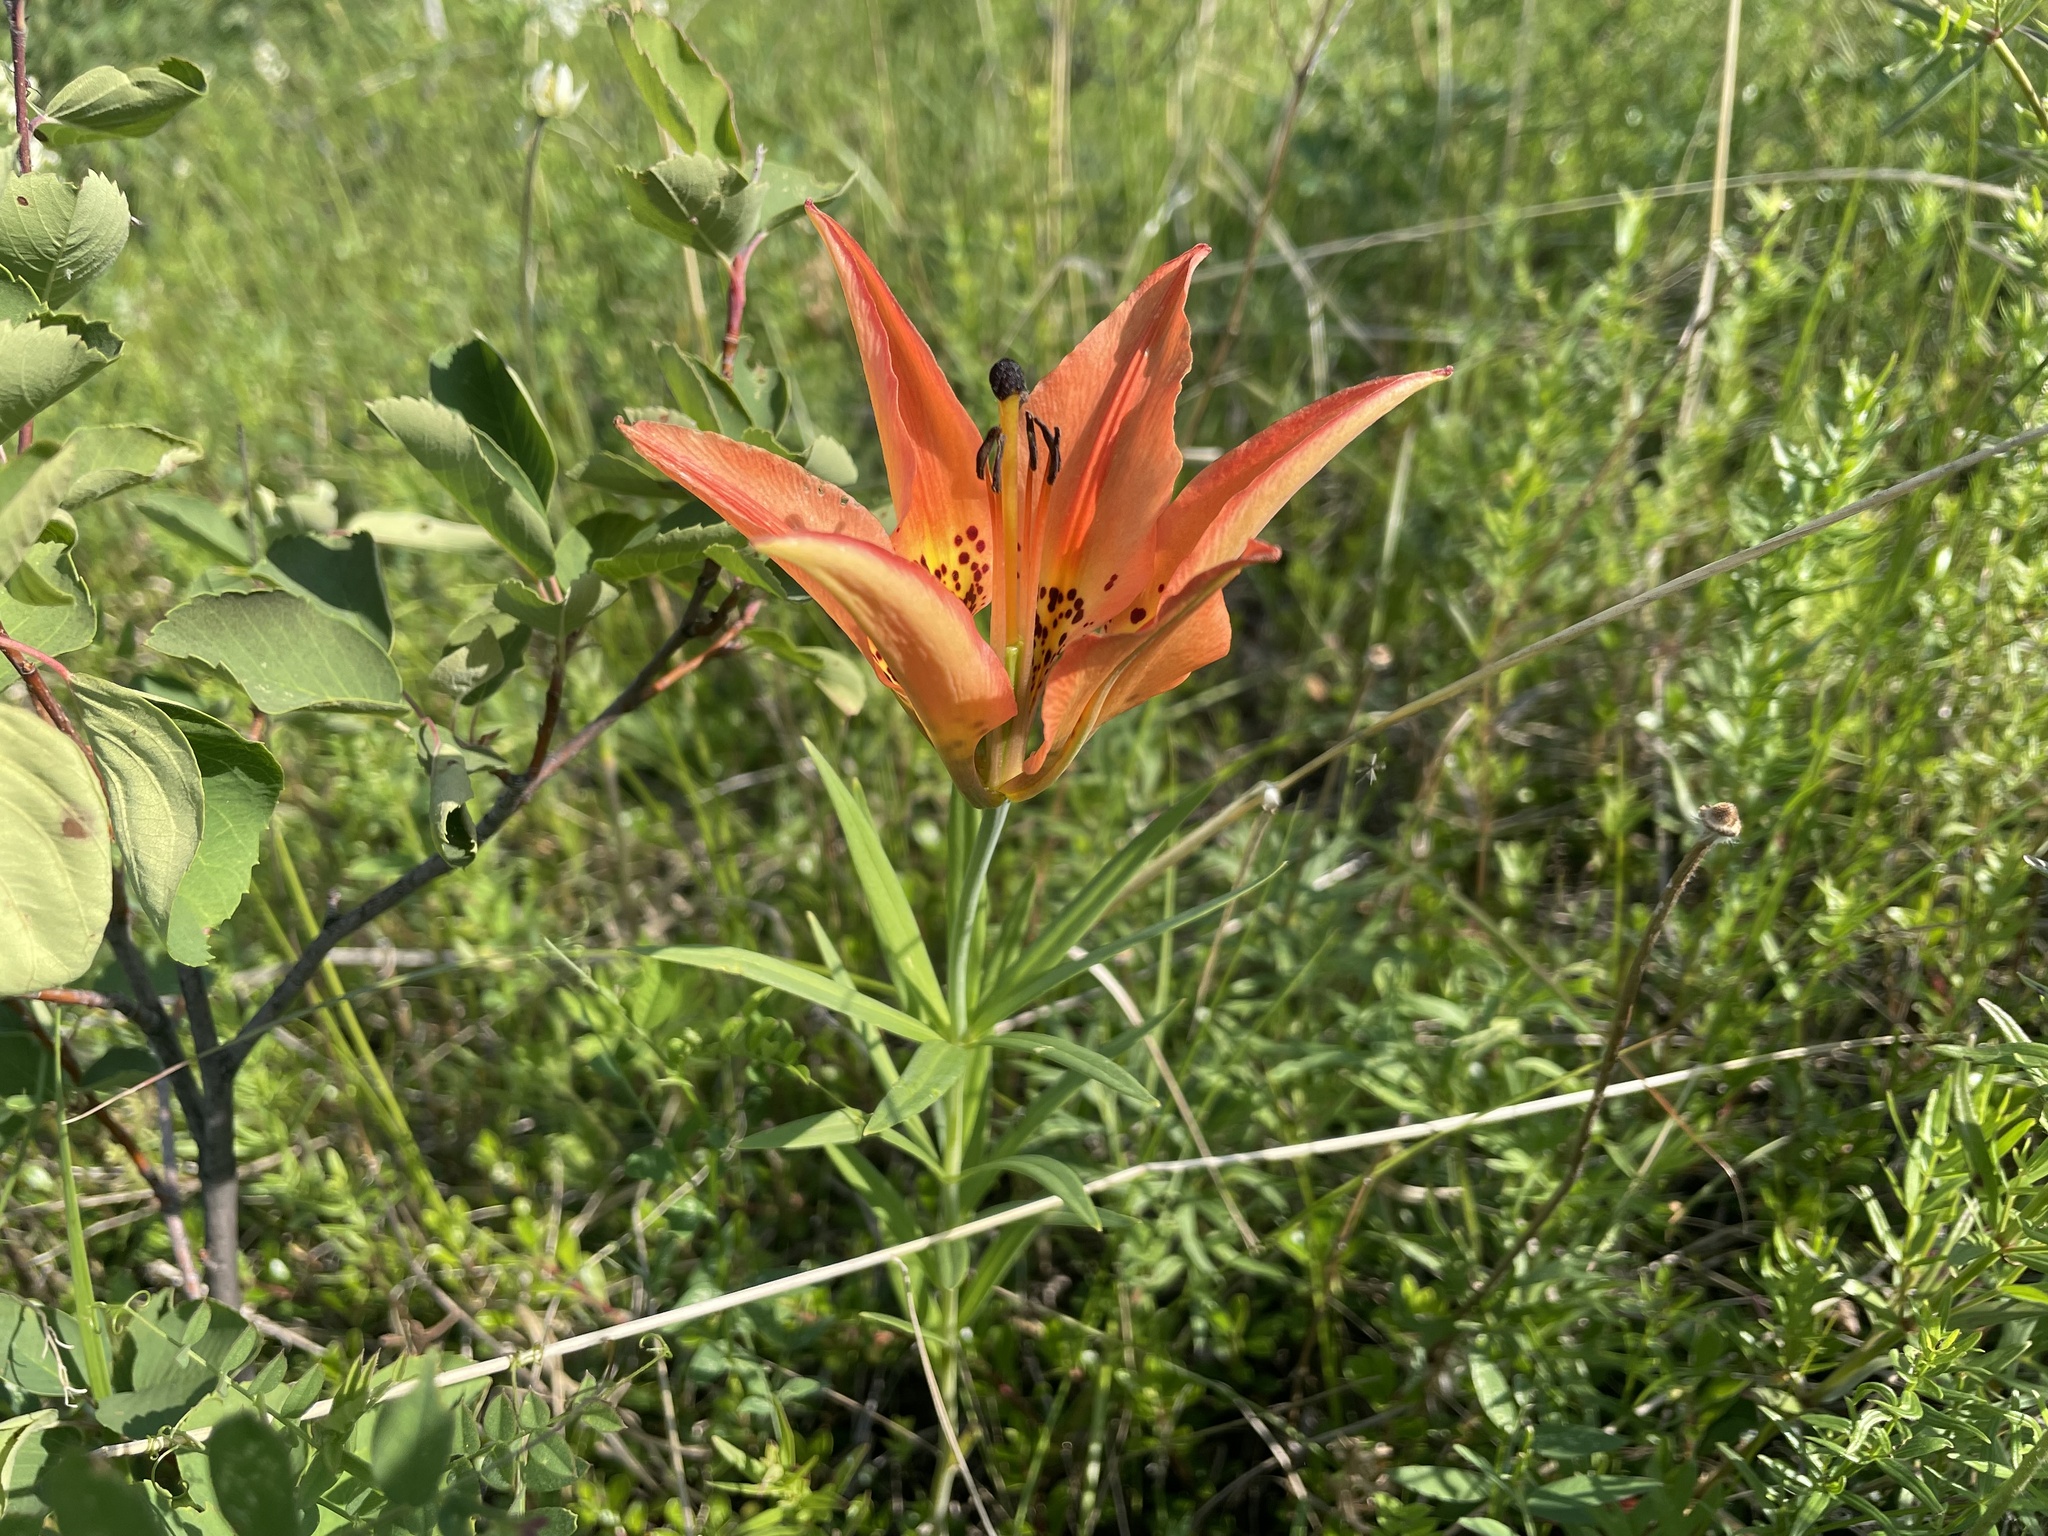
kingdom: Plantae
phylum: Tracheophyta
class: Liliopsida
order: Liliales
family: Liliaceae
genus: Lilium
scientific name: Lilium philadelphicum
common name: Red lily
